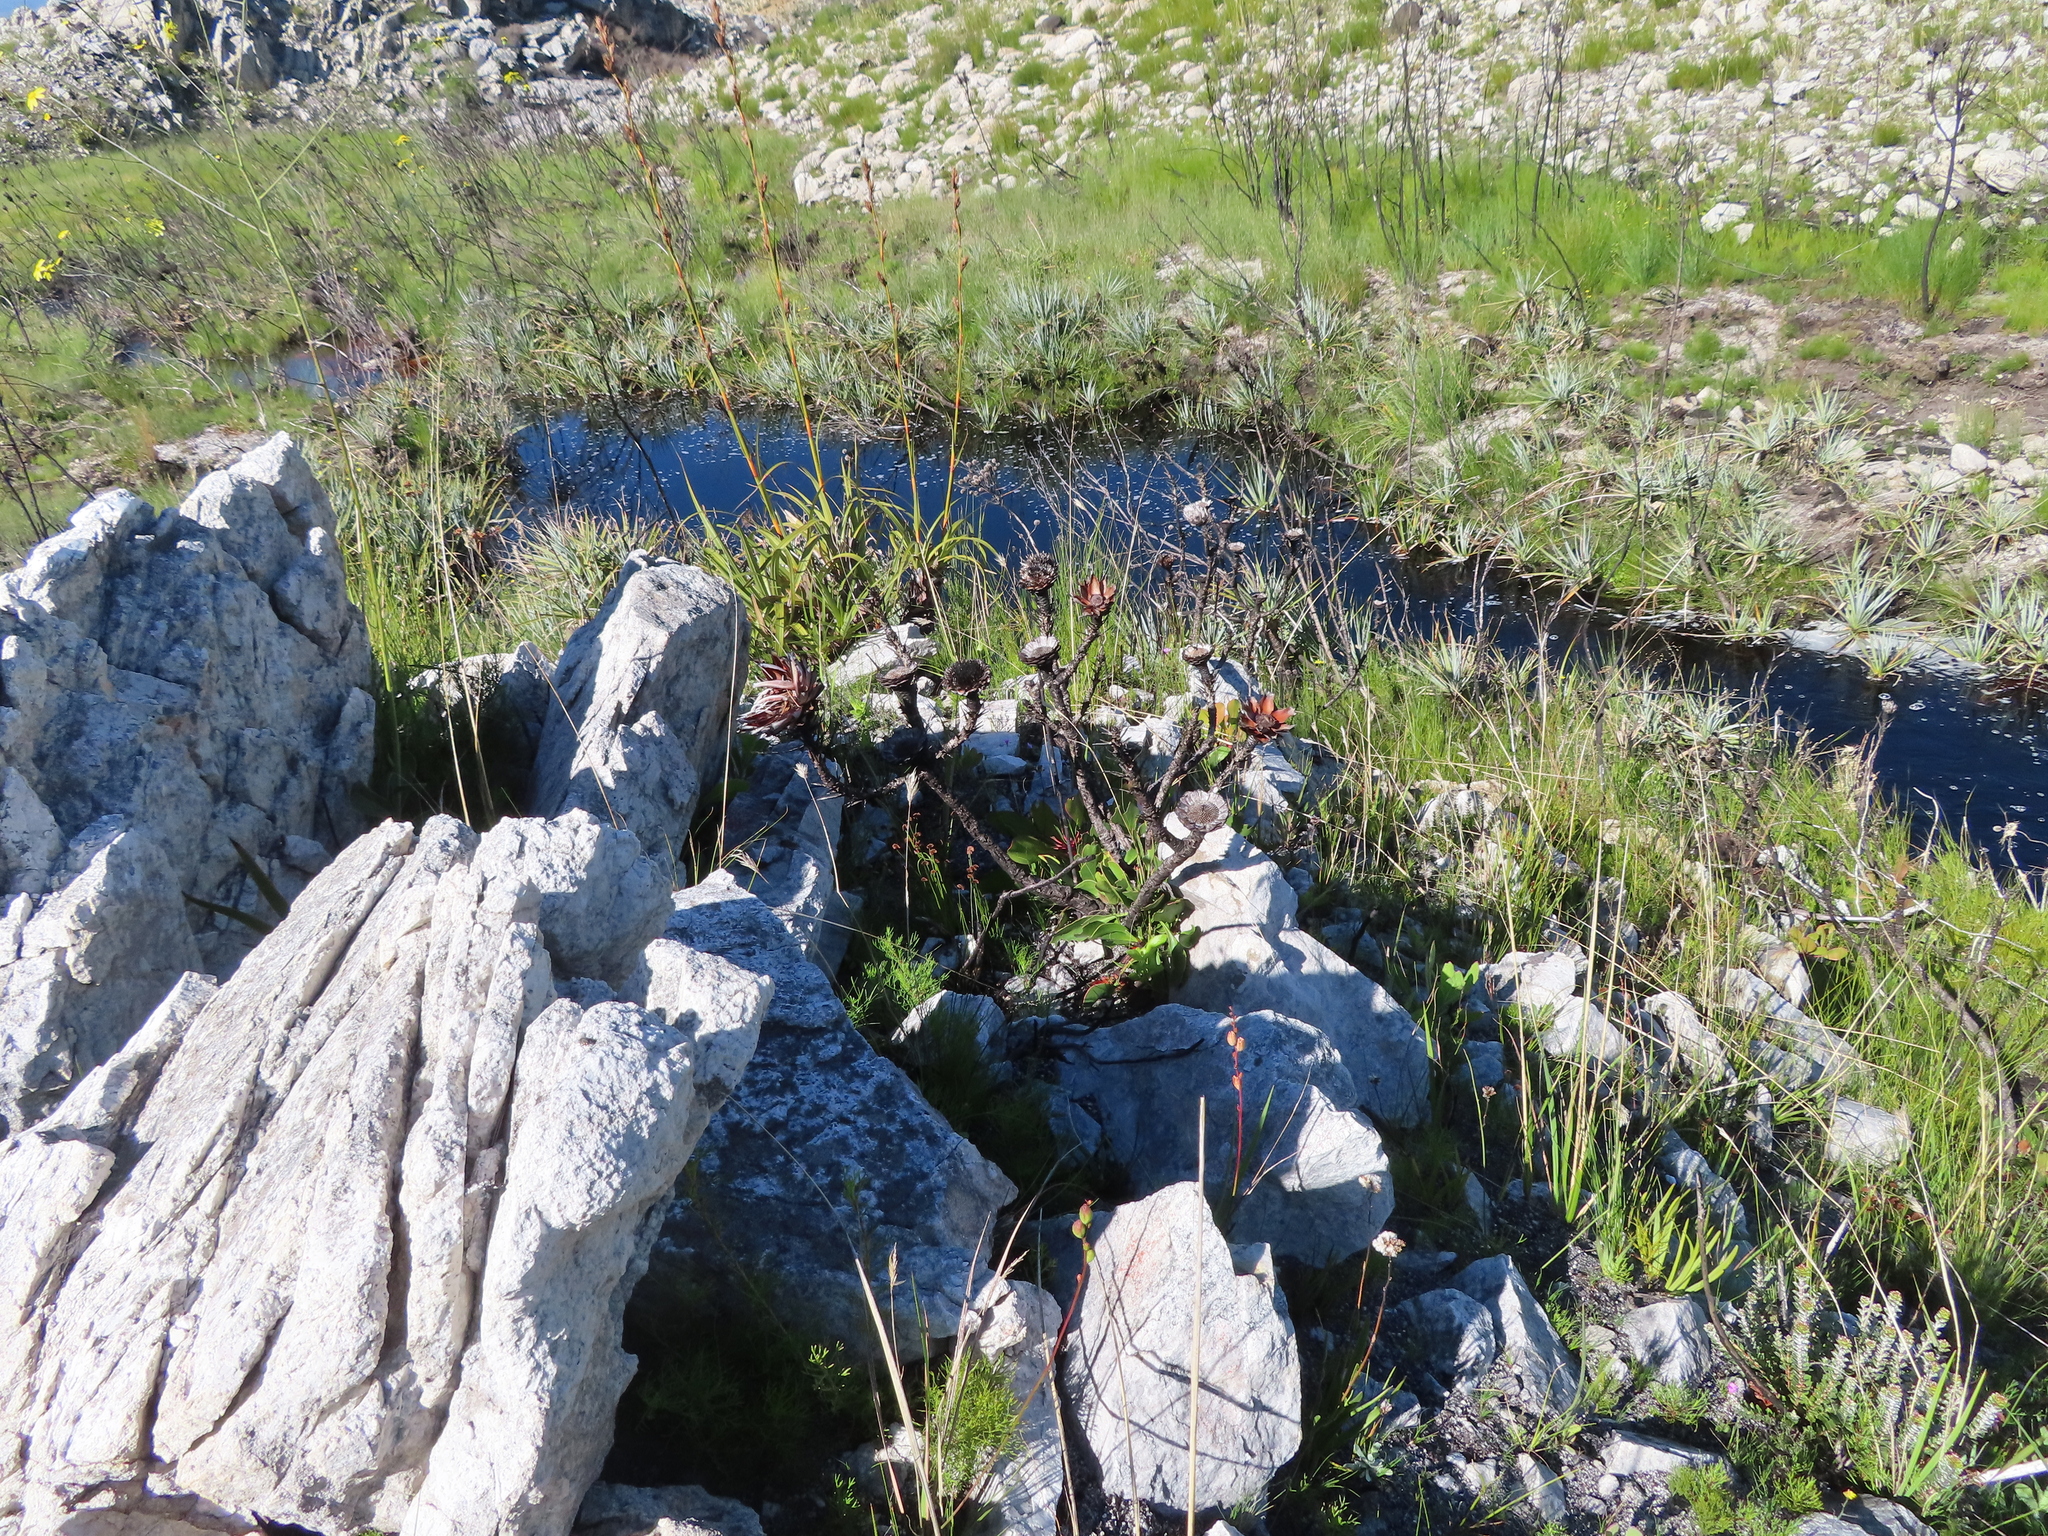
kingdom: Plantae
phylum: Tracheophyta
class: Magnoliopsida
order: Proteales
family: Proteaceae
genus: Protea
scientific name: Protea cynaroides
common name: King protea
